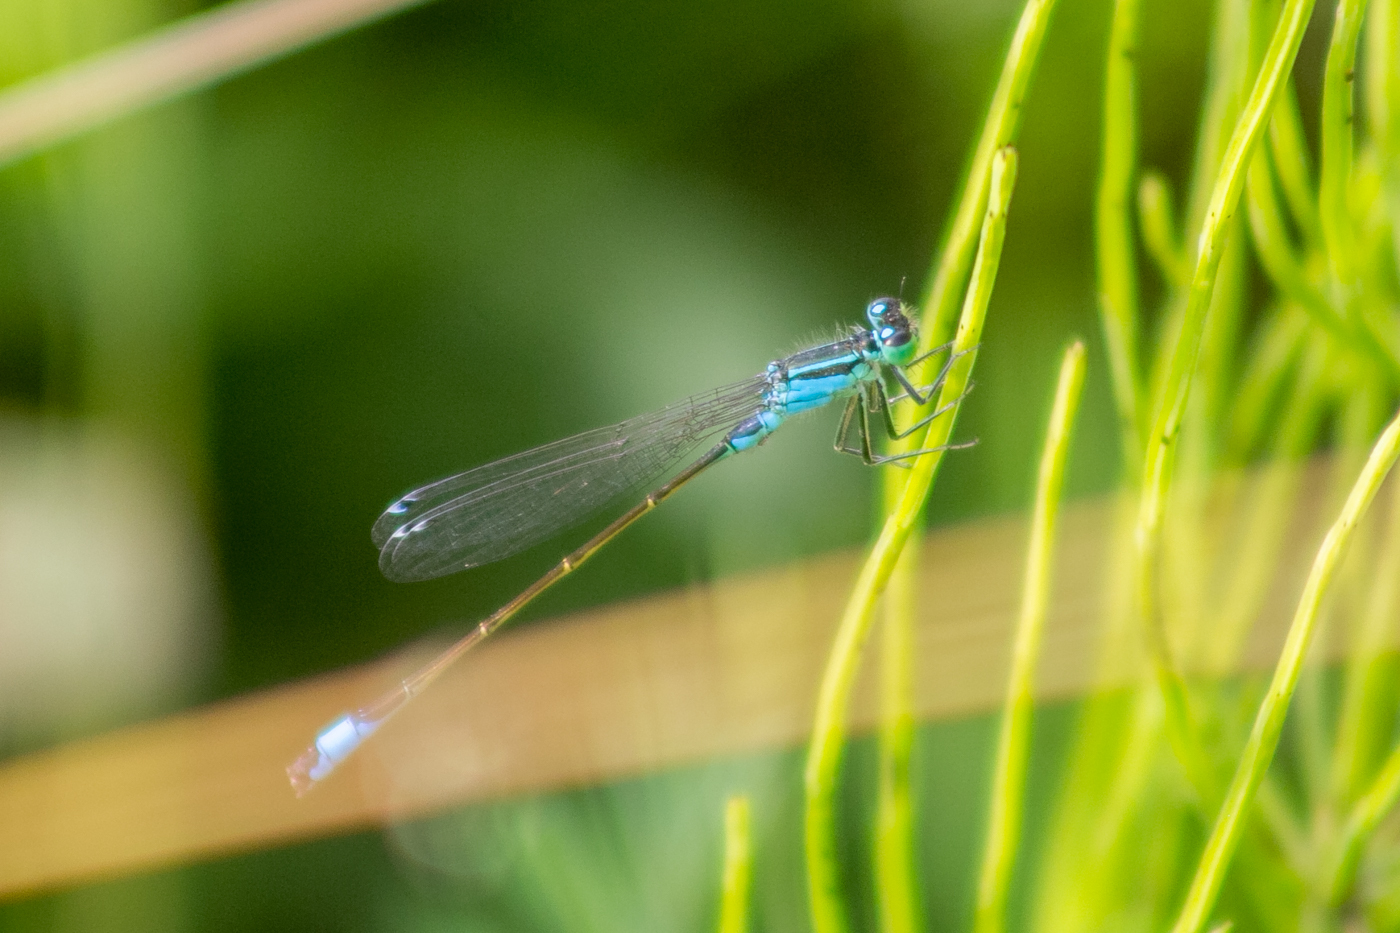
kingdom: Animalia
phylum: Arthropoda
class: Insecta
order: Odonata
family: Coenagrionidae
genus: Ischnura
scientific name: Ischnura elegans
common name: Blue-tailed damselfly
